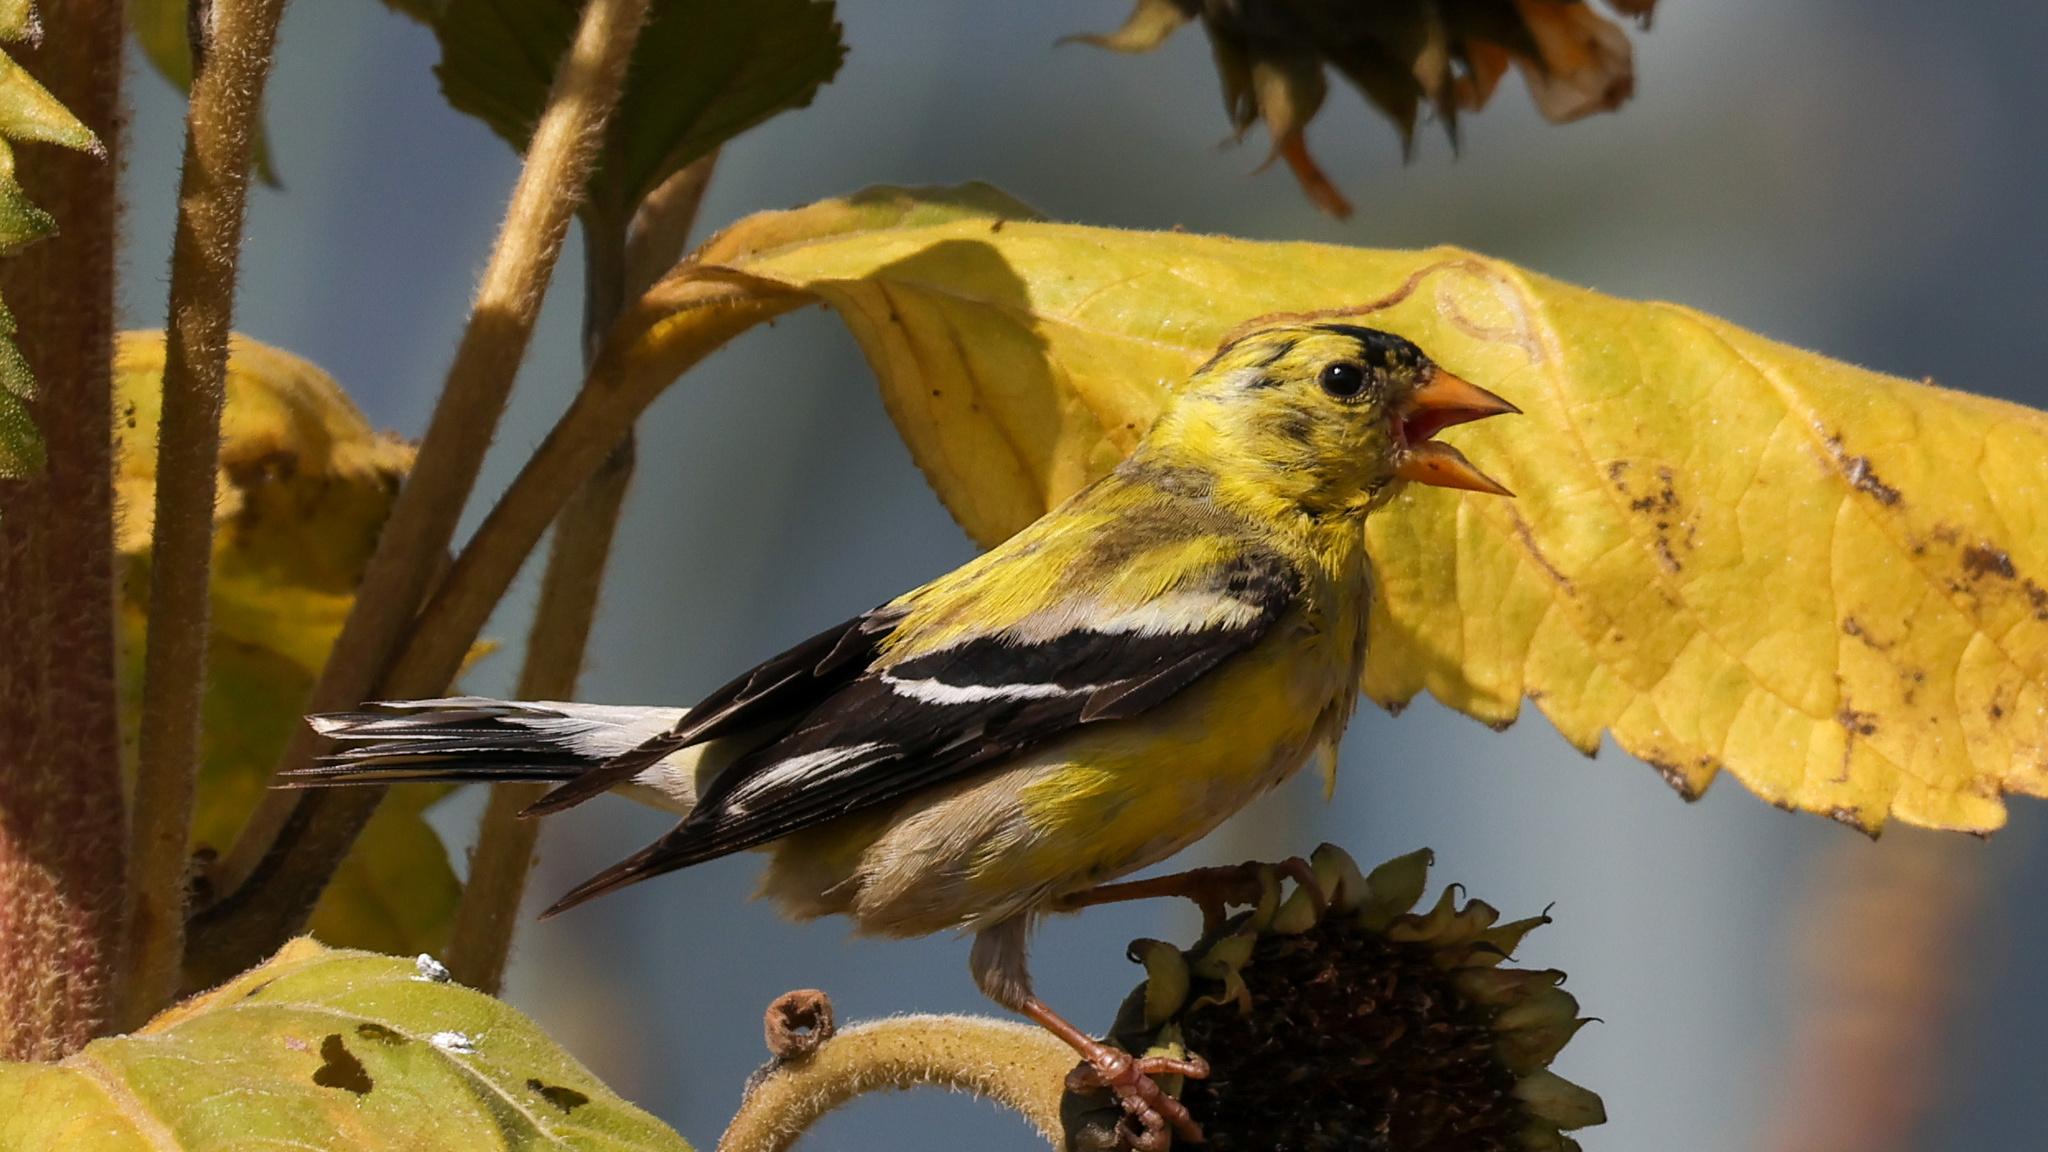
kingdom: Animalia
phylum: Chordata
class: Aves
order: Passeriformes
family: Fringillidae
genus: Spinus
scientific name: Spinus tristis
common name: American goldfinch
